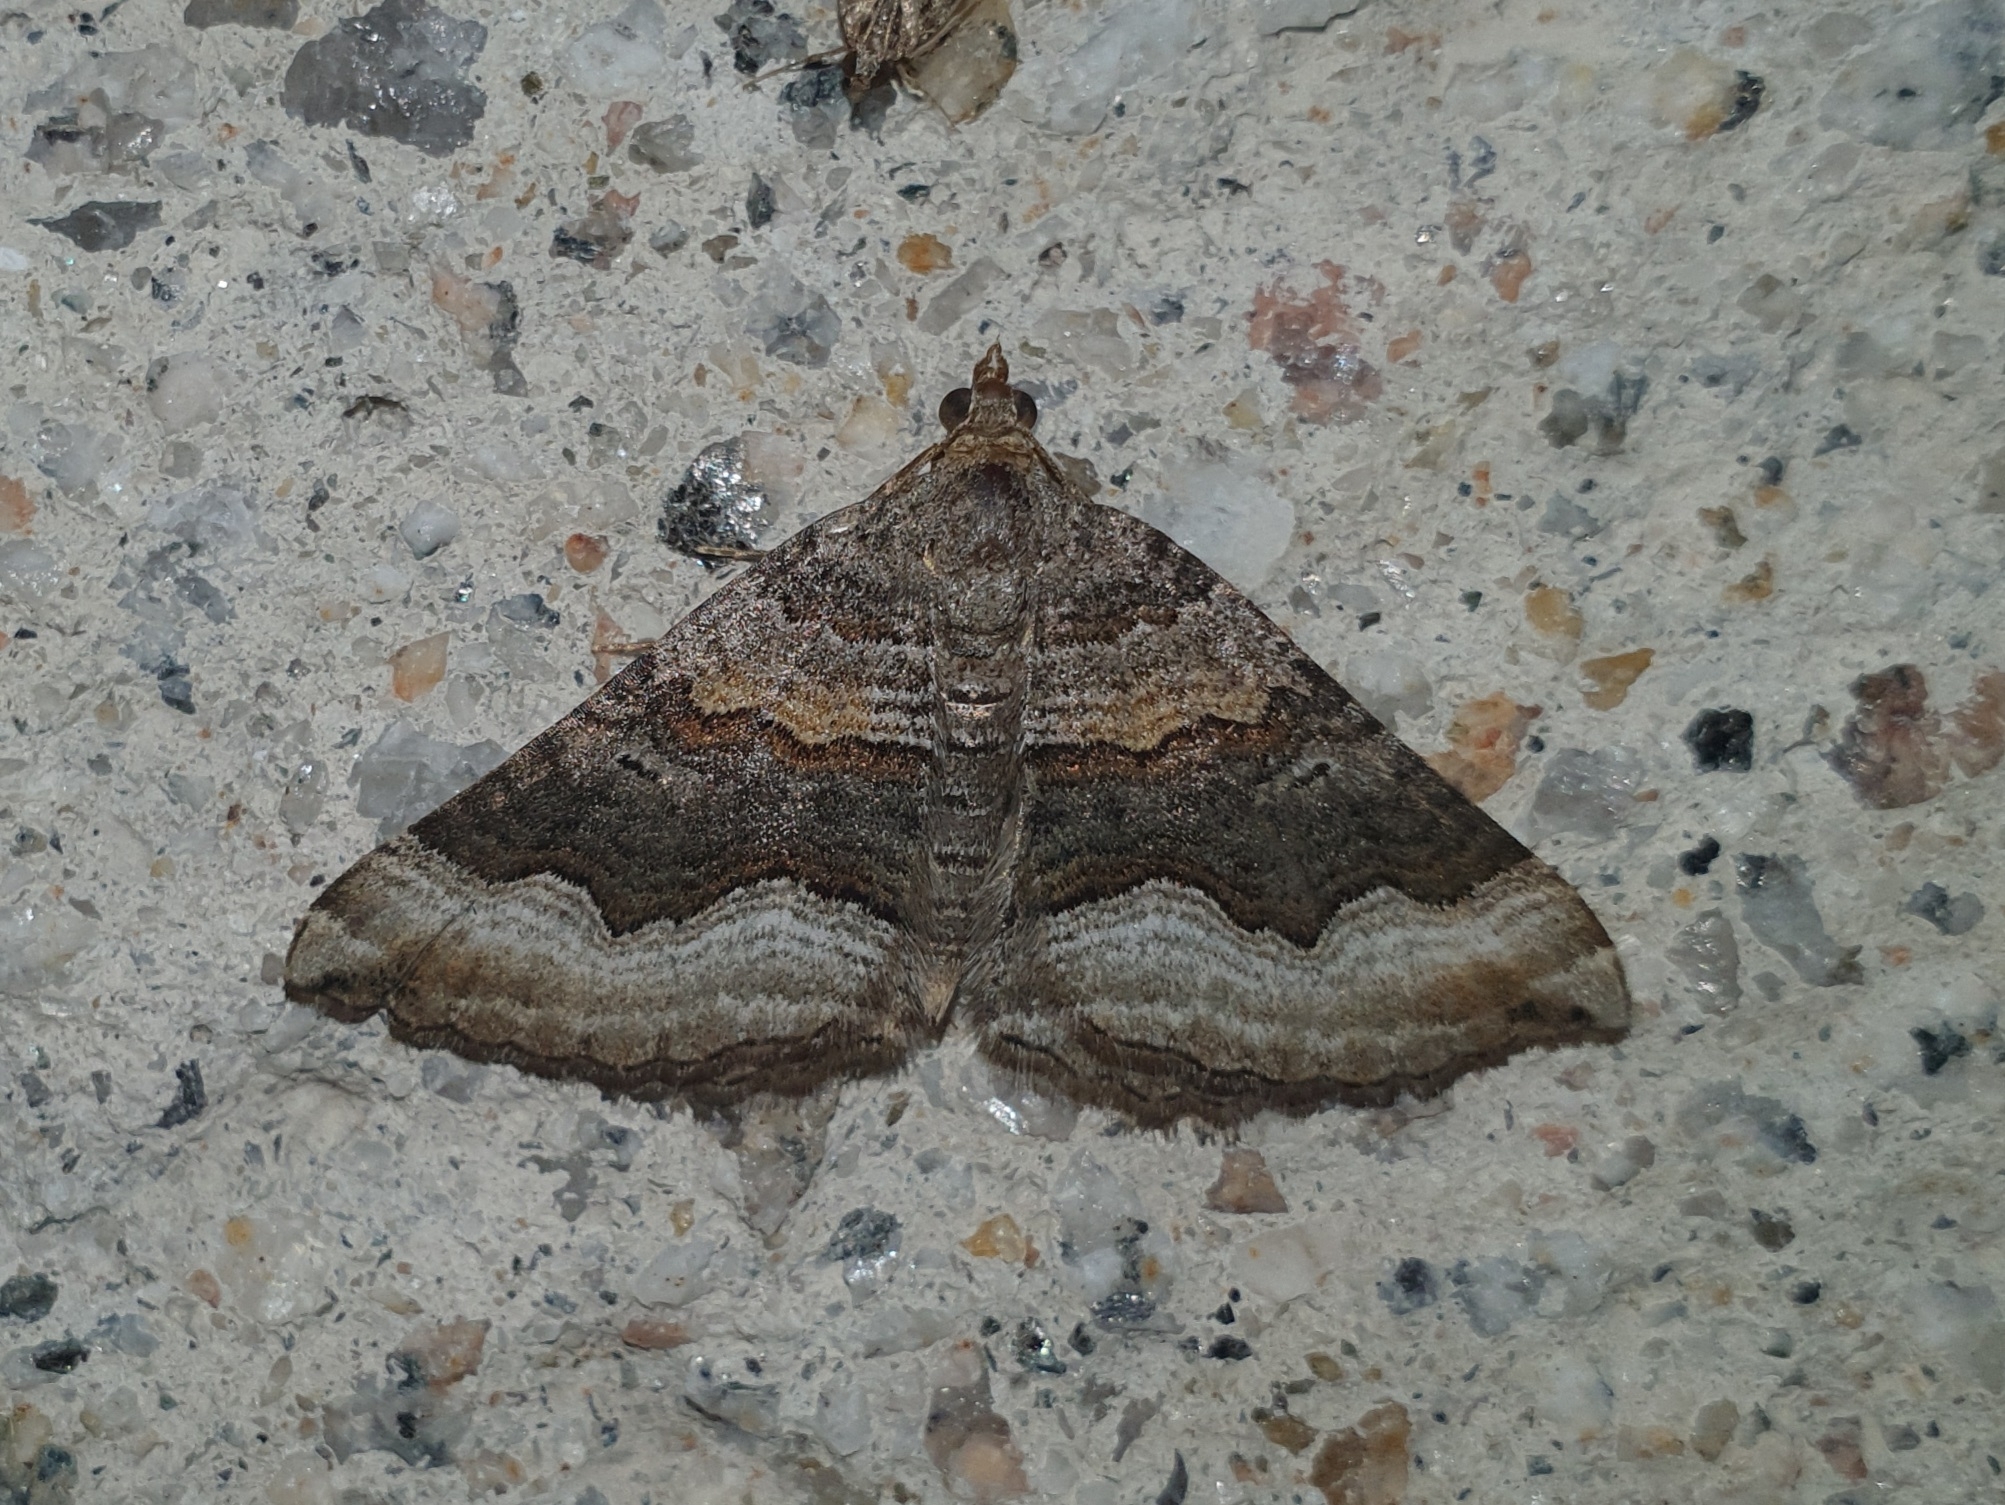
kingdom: Animalia
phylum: Arthropoda
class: Insecta
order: Lepidoptera
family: Geometridae
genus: Scotopteryx
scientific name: Scotopteryx coelinaria
